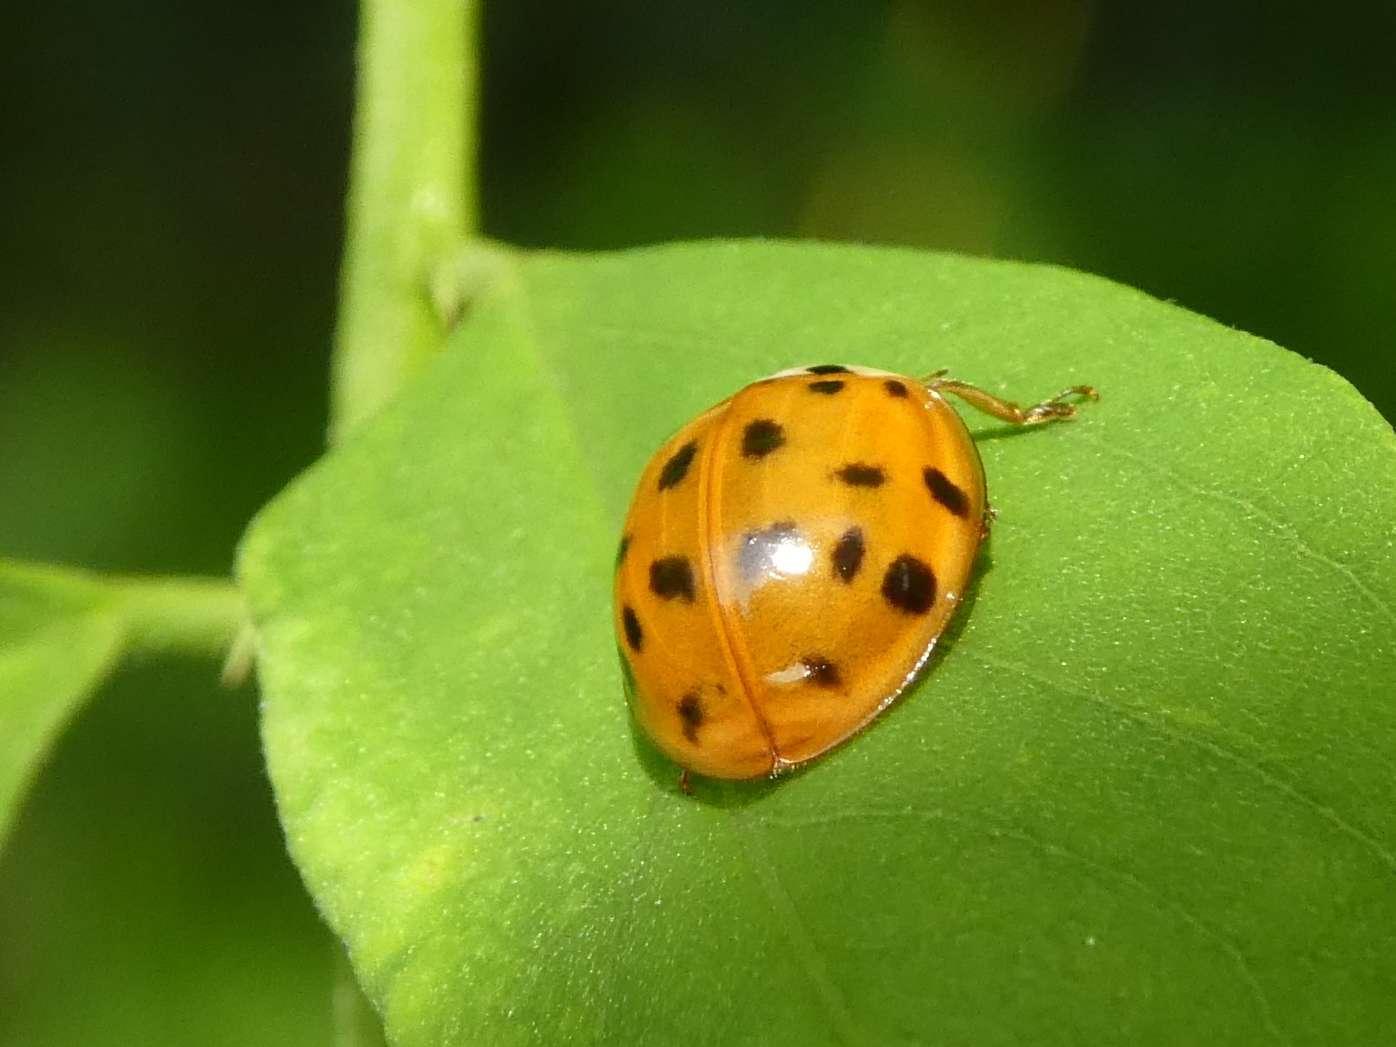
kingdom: Animalia
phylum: Arthropoda
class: Insecta
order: Coleoptera
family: Coccinellidae
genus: Harmonia
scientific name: Harmonia axyridis
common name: Harlequin ladybird
